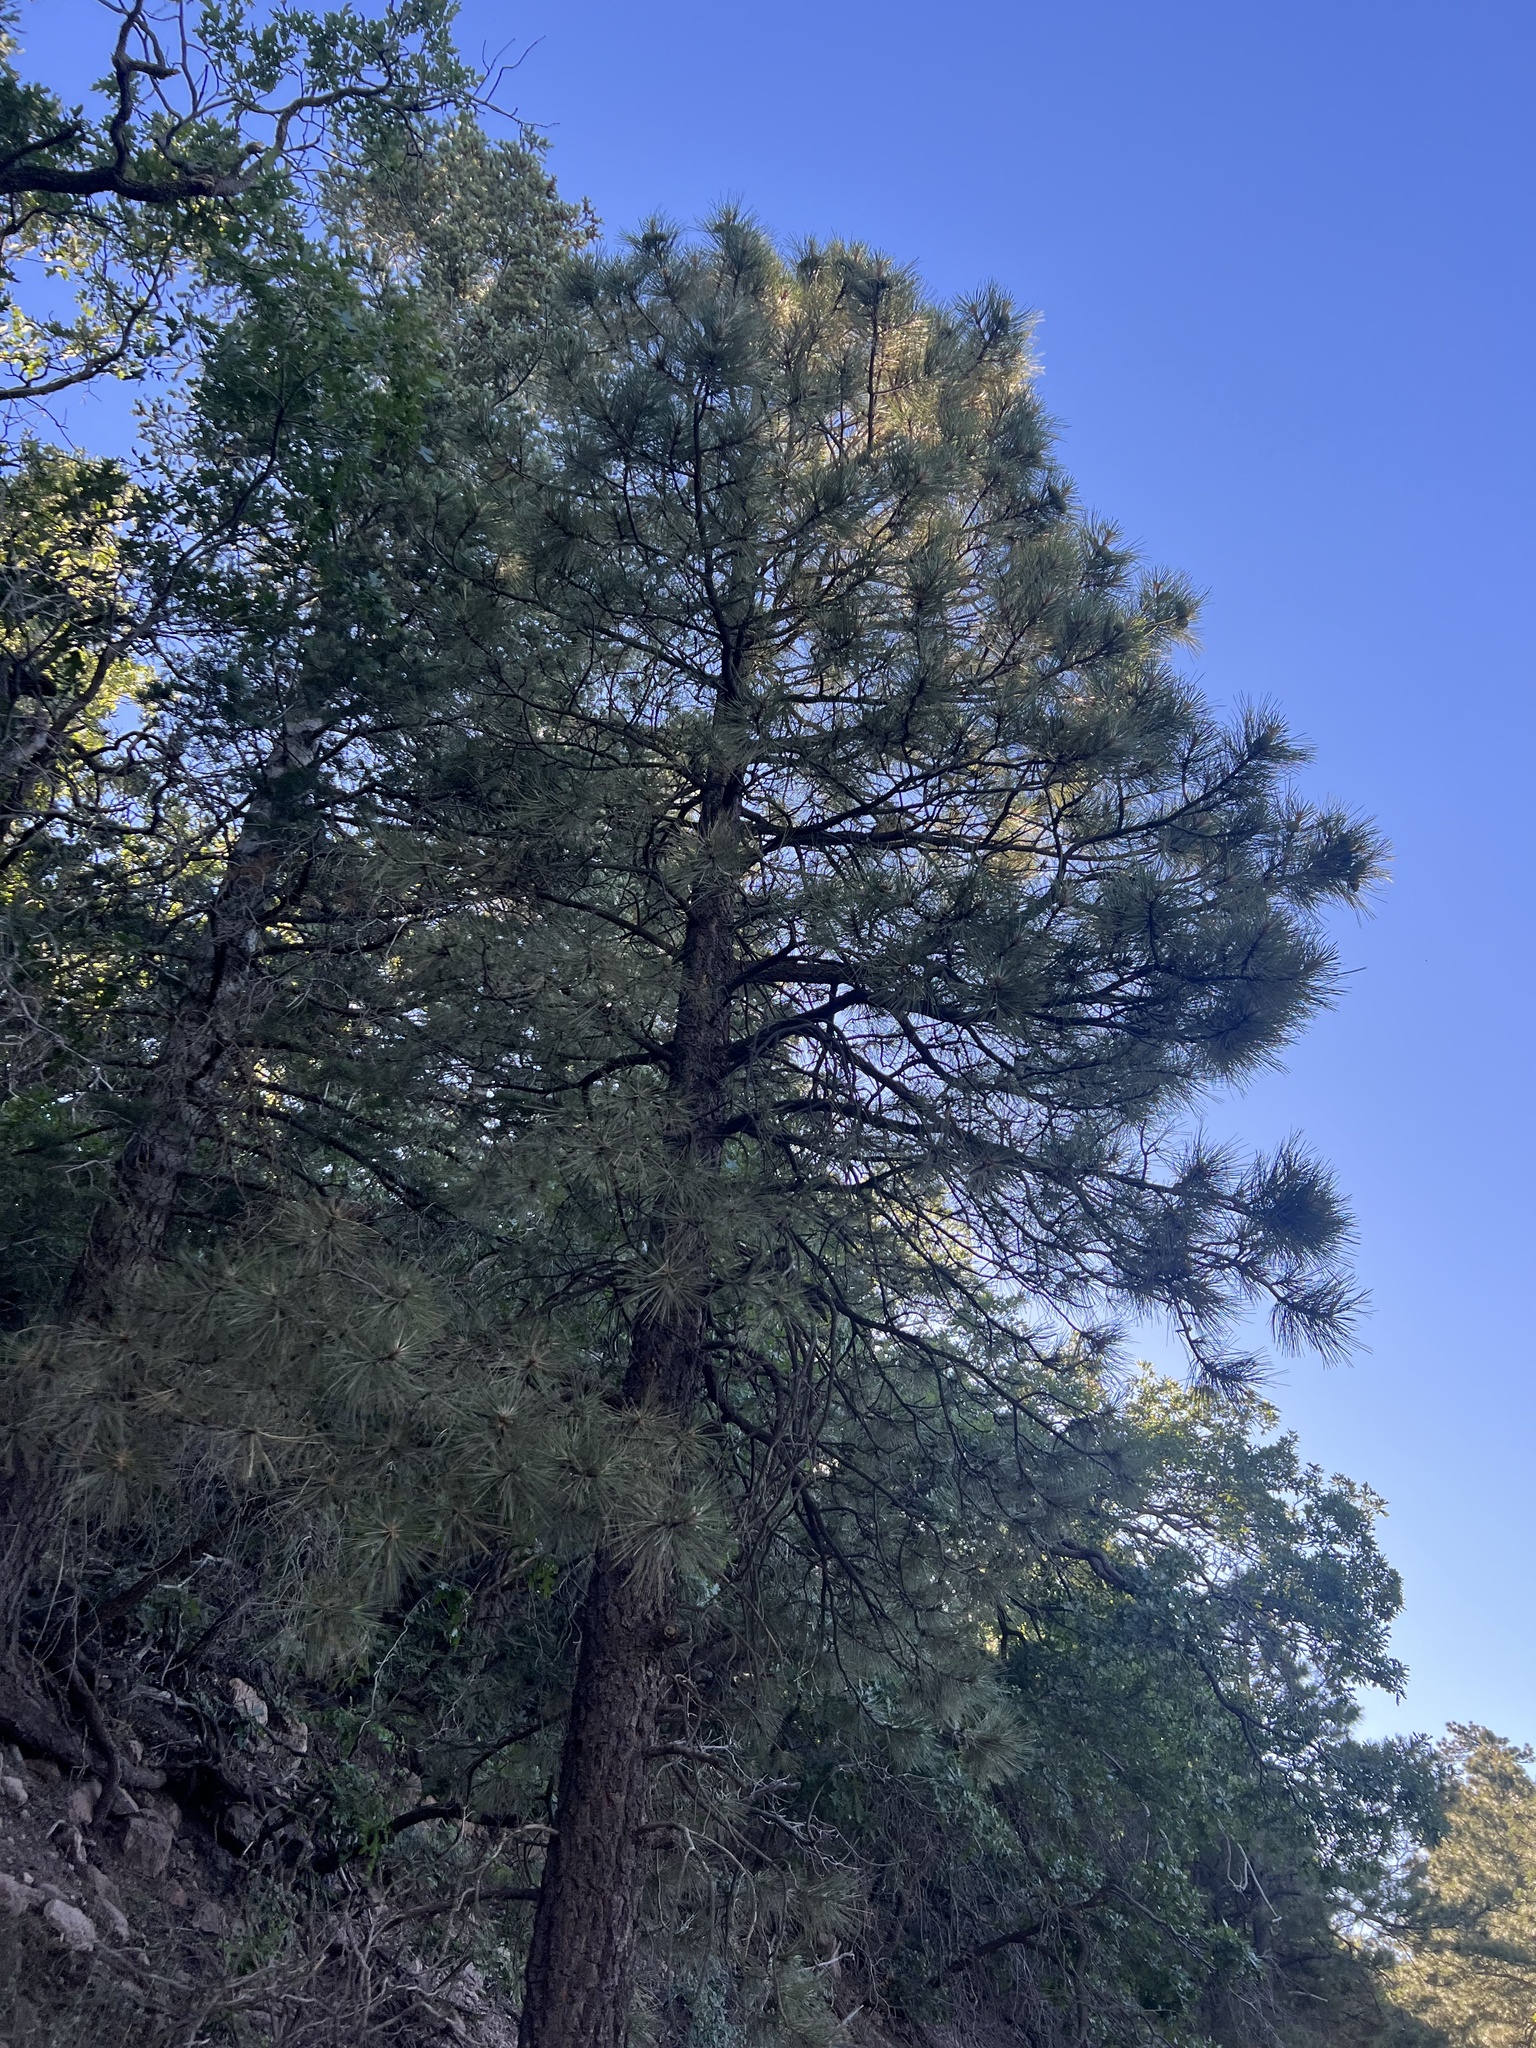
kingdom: Plantae
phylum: Tracheophyta
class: Pinopsida
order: Pinales
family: Pinaceae
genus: Pinus
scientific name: Pinus ponderosa
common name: Western yellow-pine
